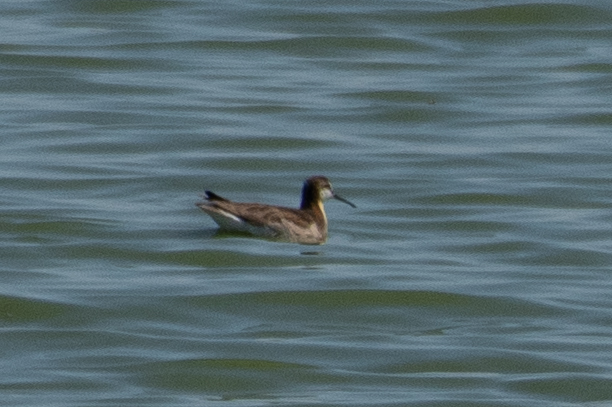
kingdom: Animalia
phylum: Chordata
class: Aves
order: Charadriiformes
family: Scolopacidae
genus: Phalaropus
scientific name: Phalaropus tricolor
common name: Wilson's phalarope
